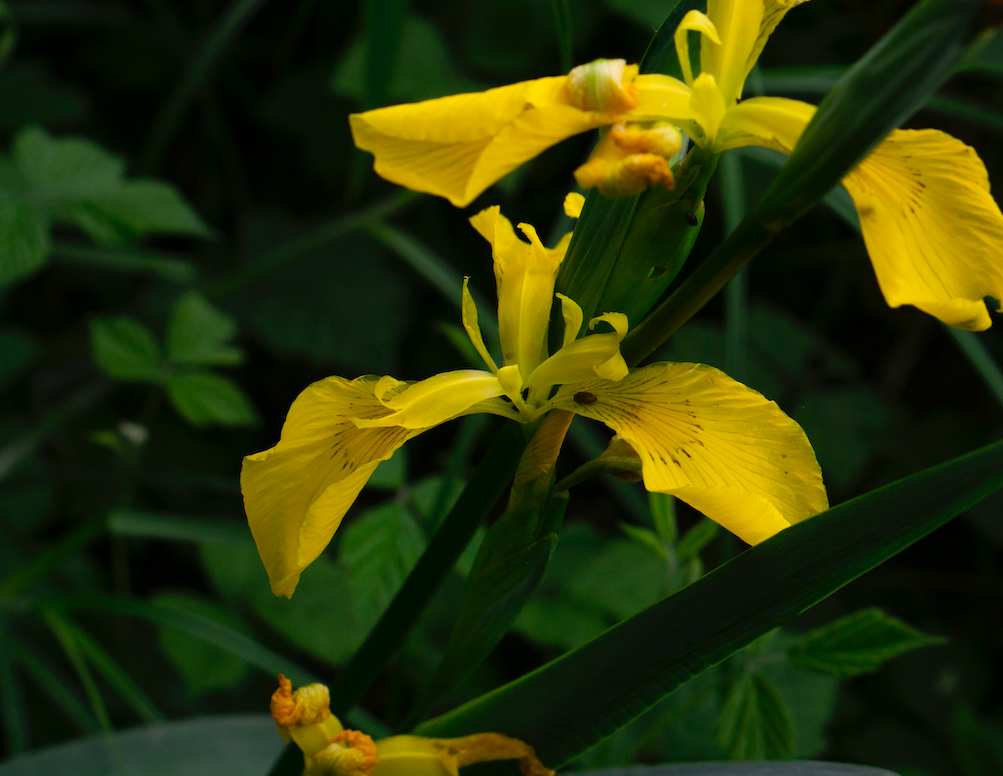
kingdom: Plantae
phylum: Tracheophyta
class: Liliopsida
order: Asparagales
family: Iridaceae
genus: Iris
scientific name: Iris pseudacorus
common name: Yellow flag
